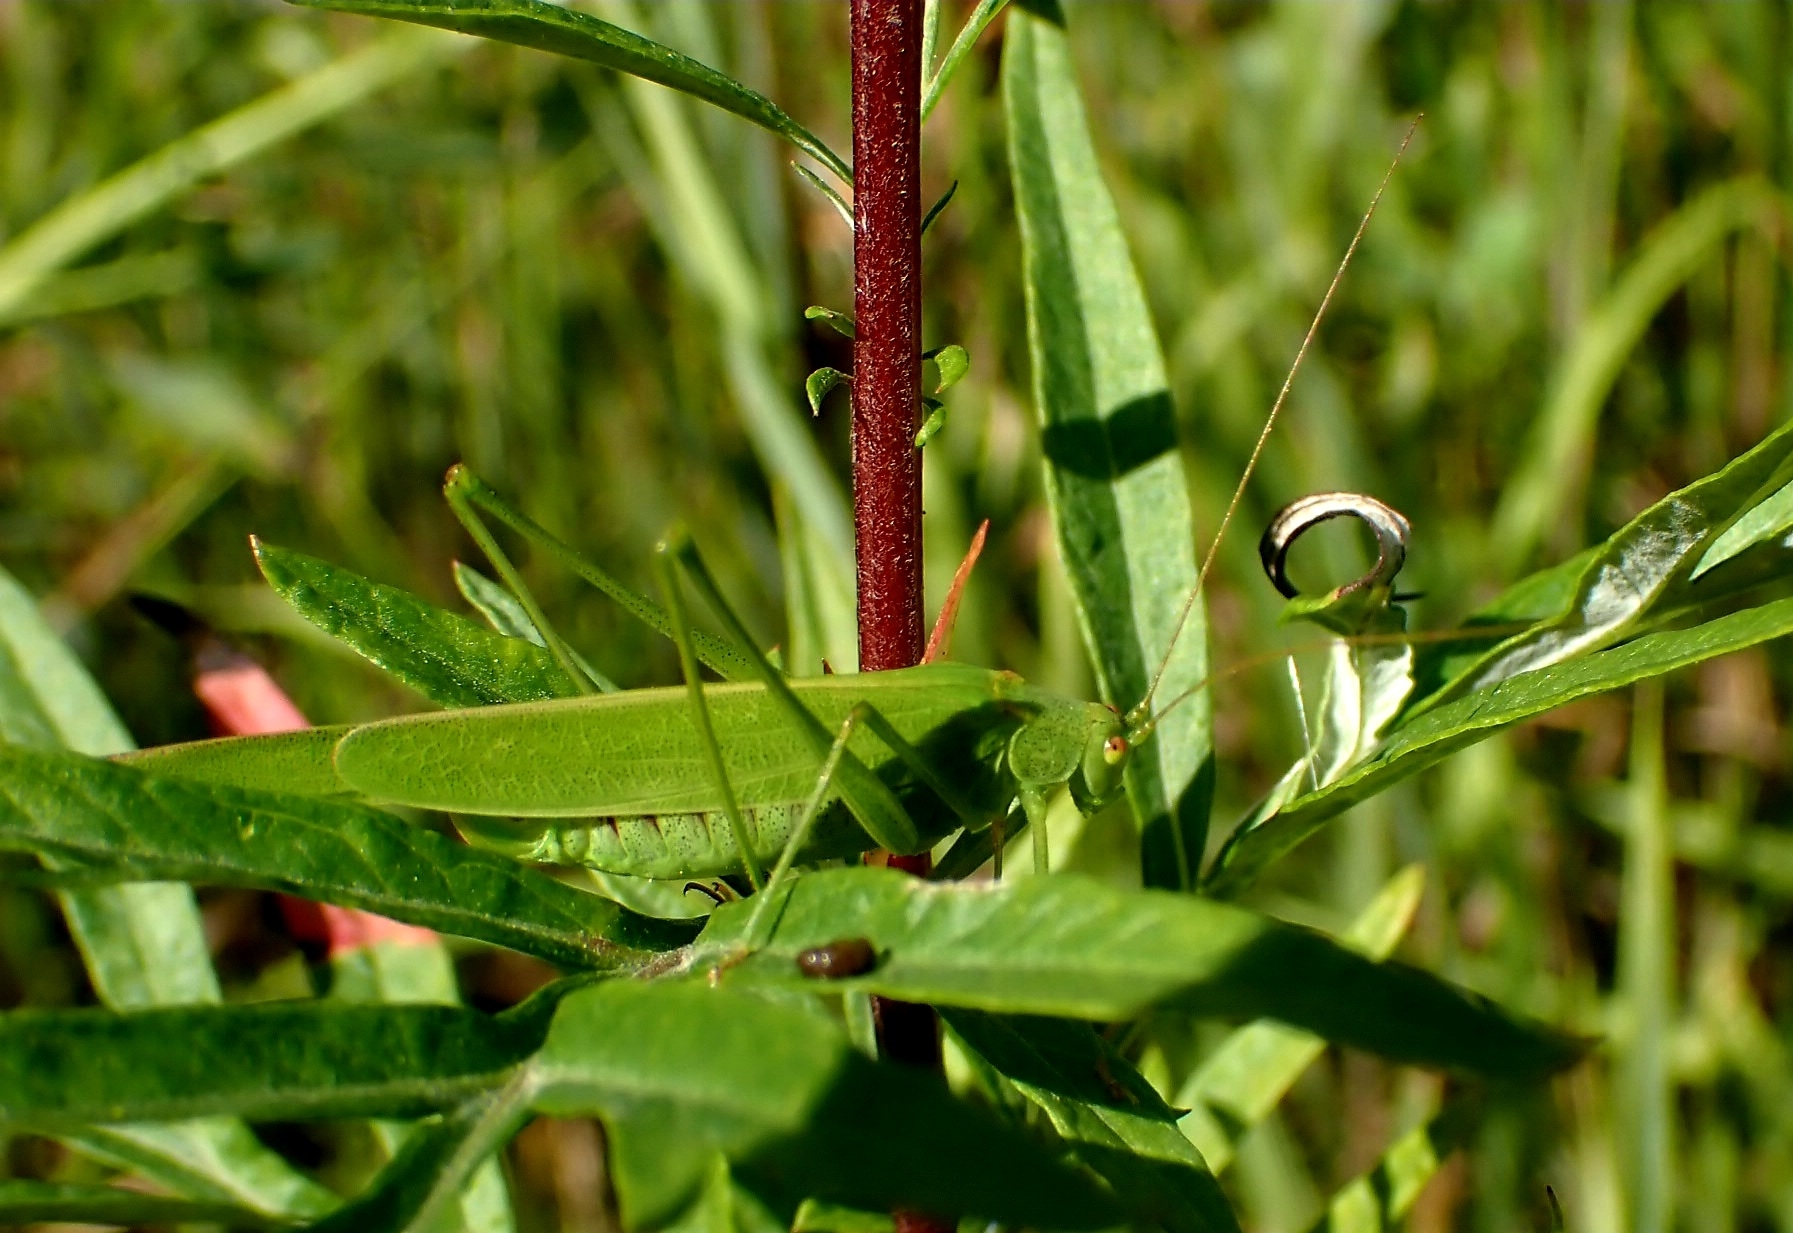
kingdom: Animalia
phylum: Arthropoda
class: Insecta
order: Orthoptera
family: Tettigoniidae
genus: Phaneroptera
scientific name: Phaneroptera falcata
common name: Sickle-bearing bush-cricket
